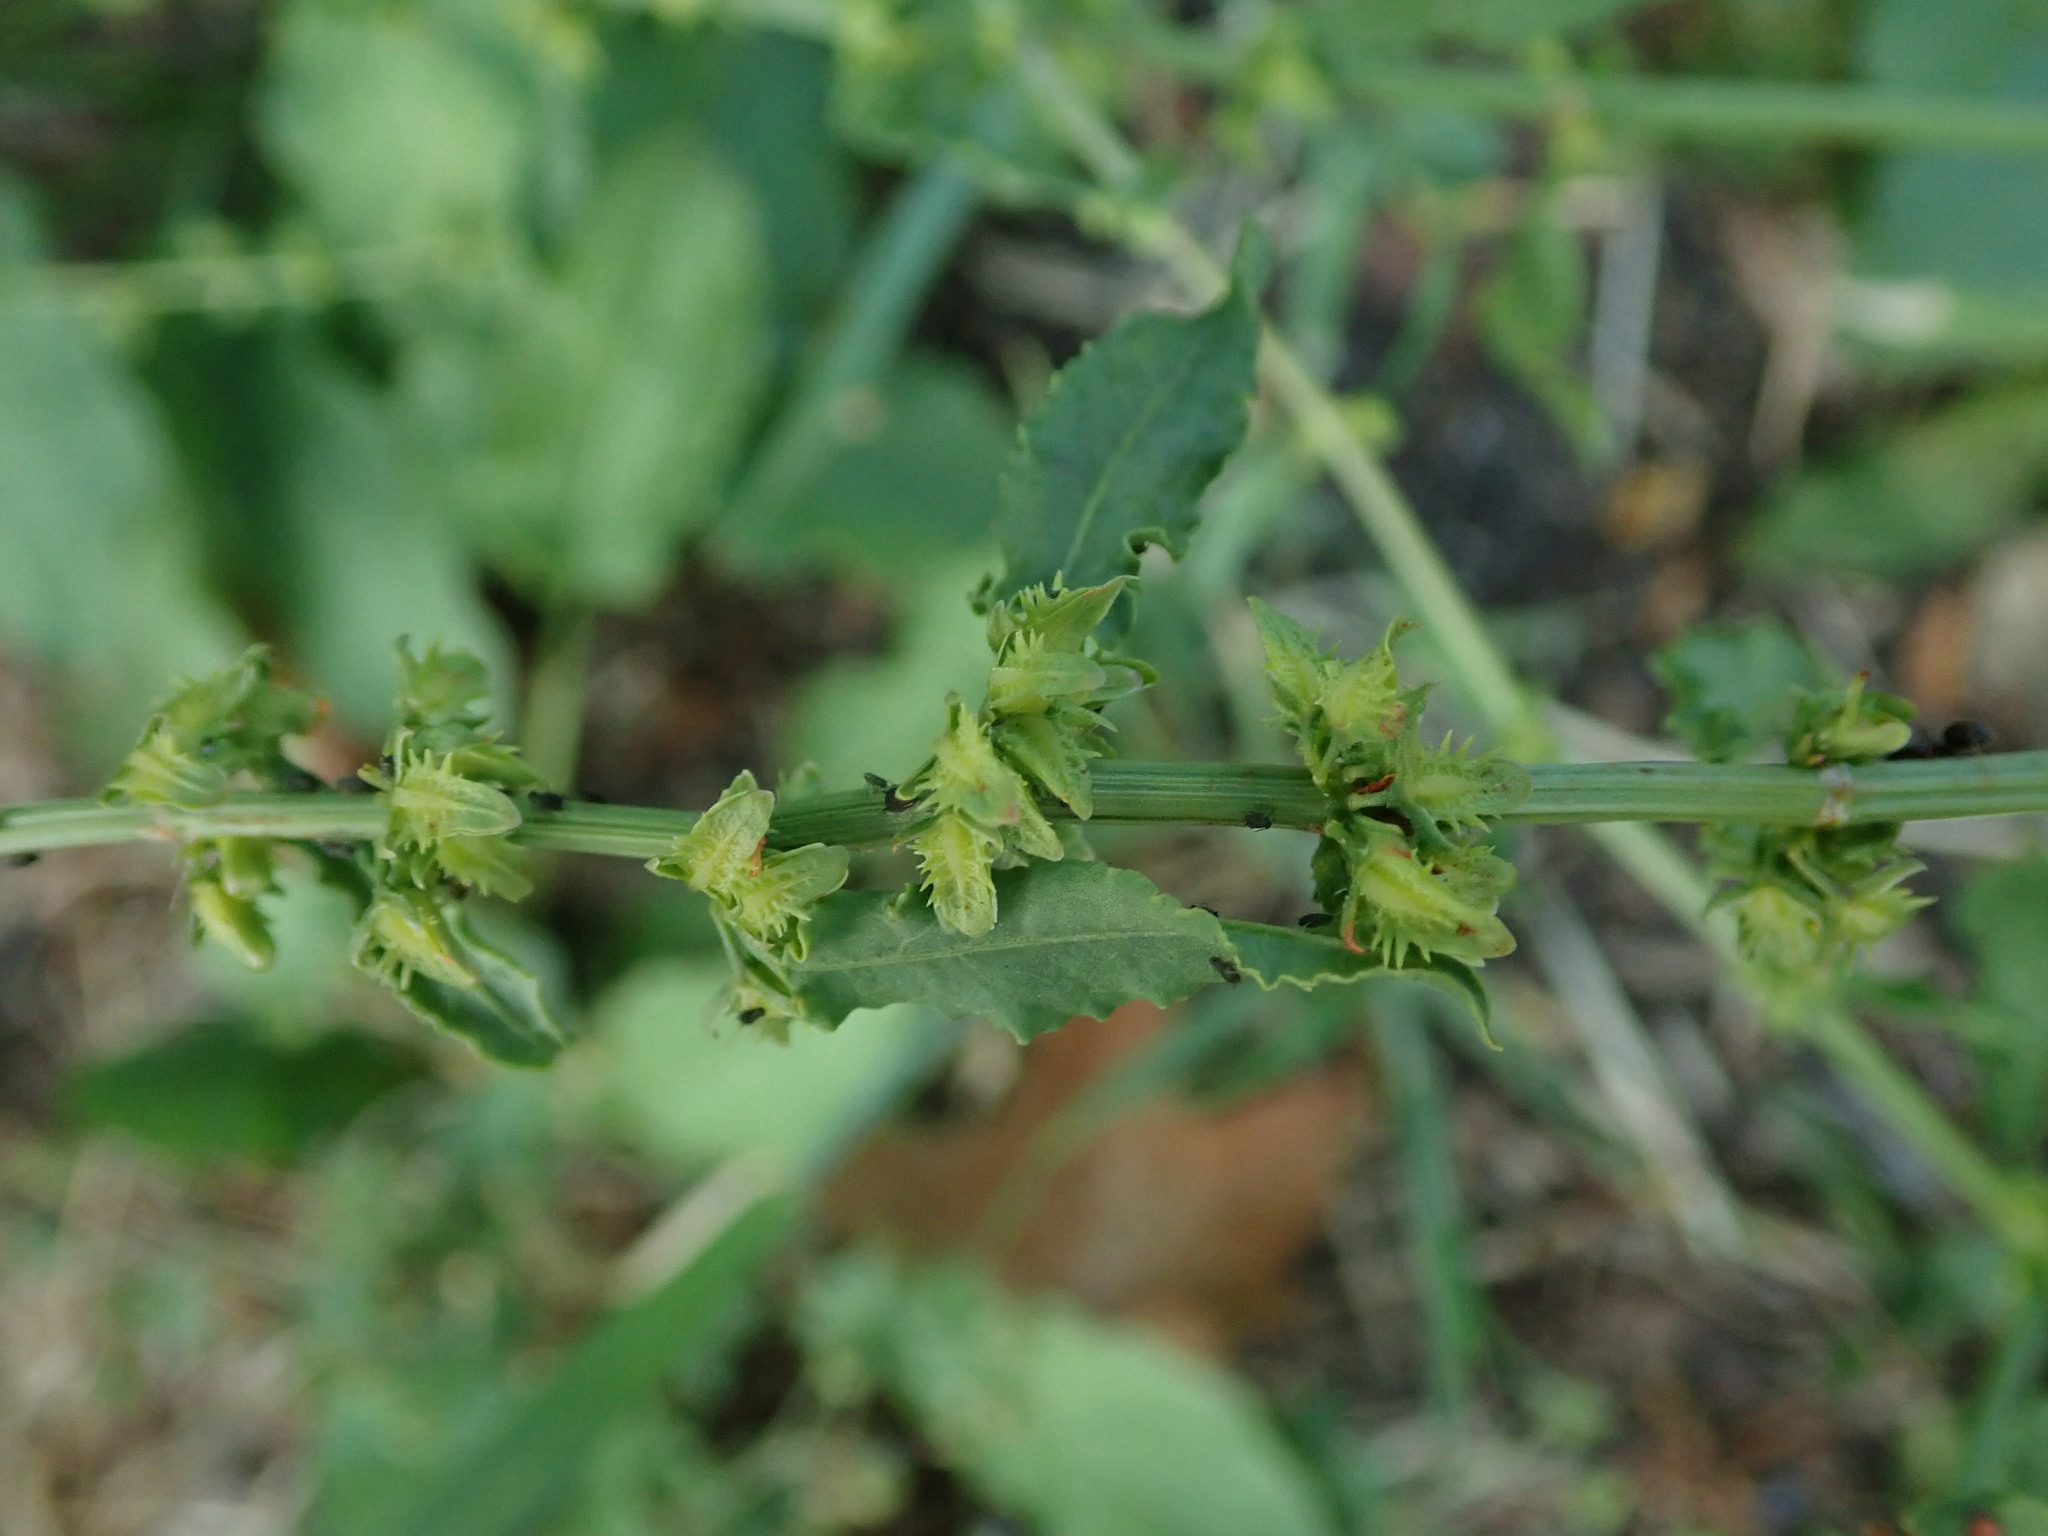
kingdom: Plantae
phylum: Tracheophyta
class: Magnoliopsida
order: Caryophyllales
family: Polygonaceae
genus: Rumex
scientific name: Rumex pulcher
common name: Fiddle dock
